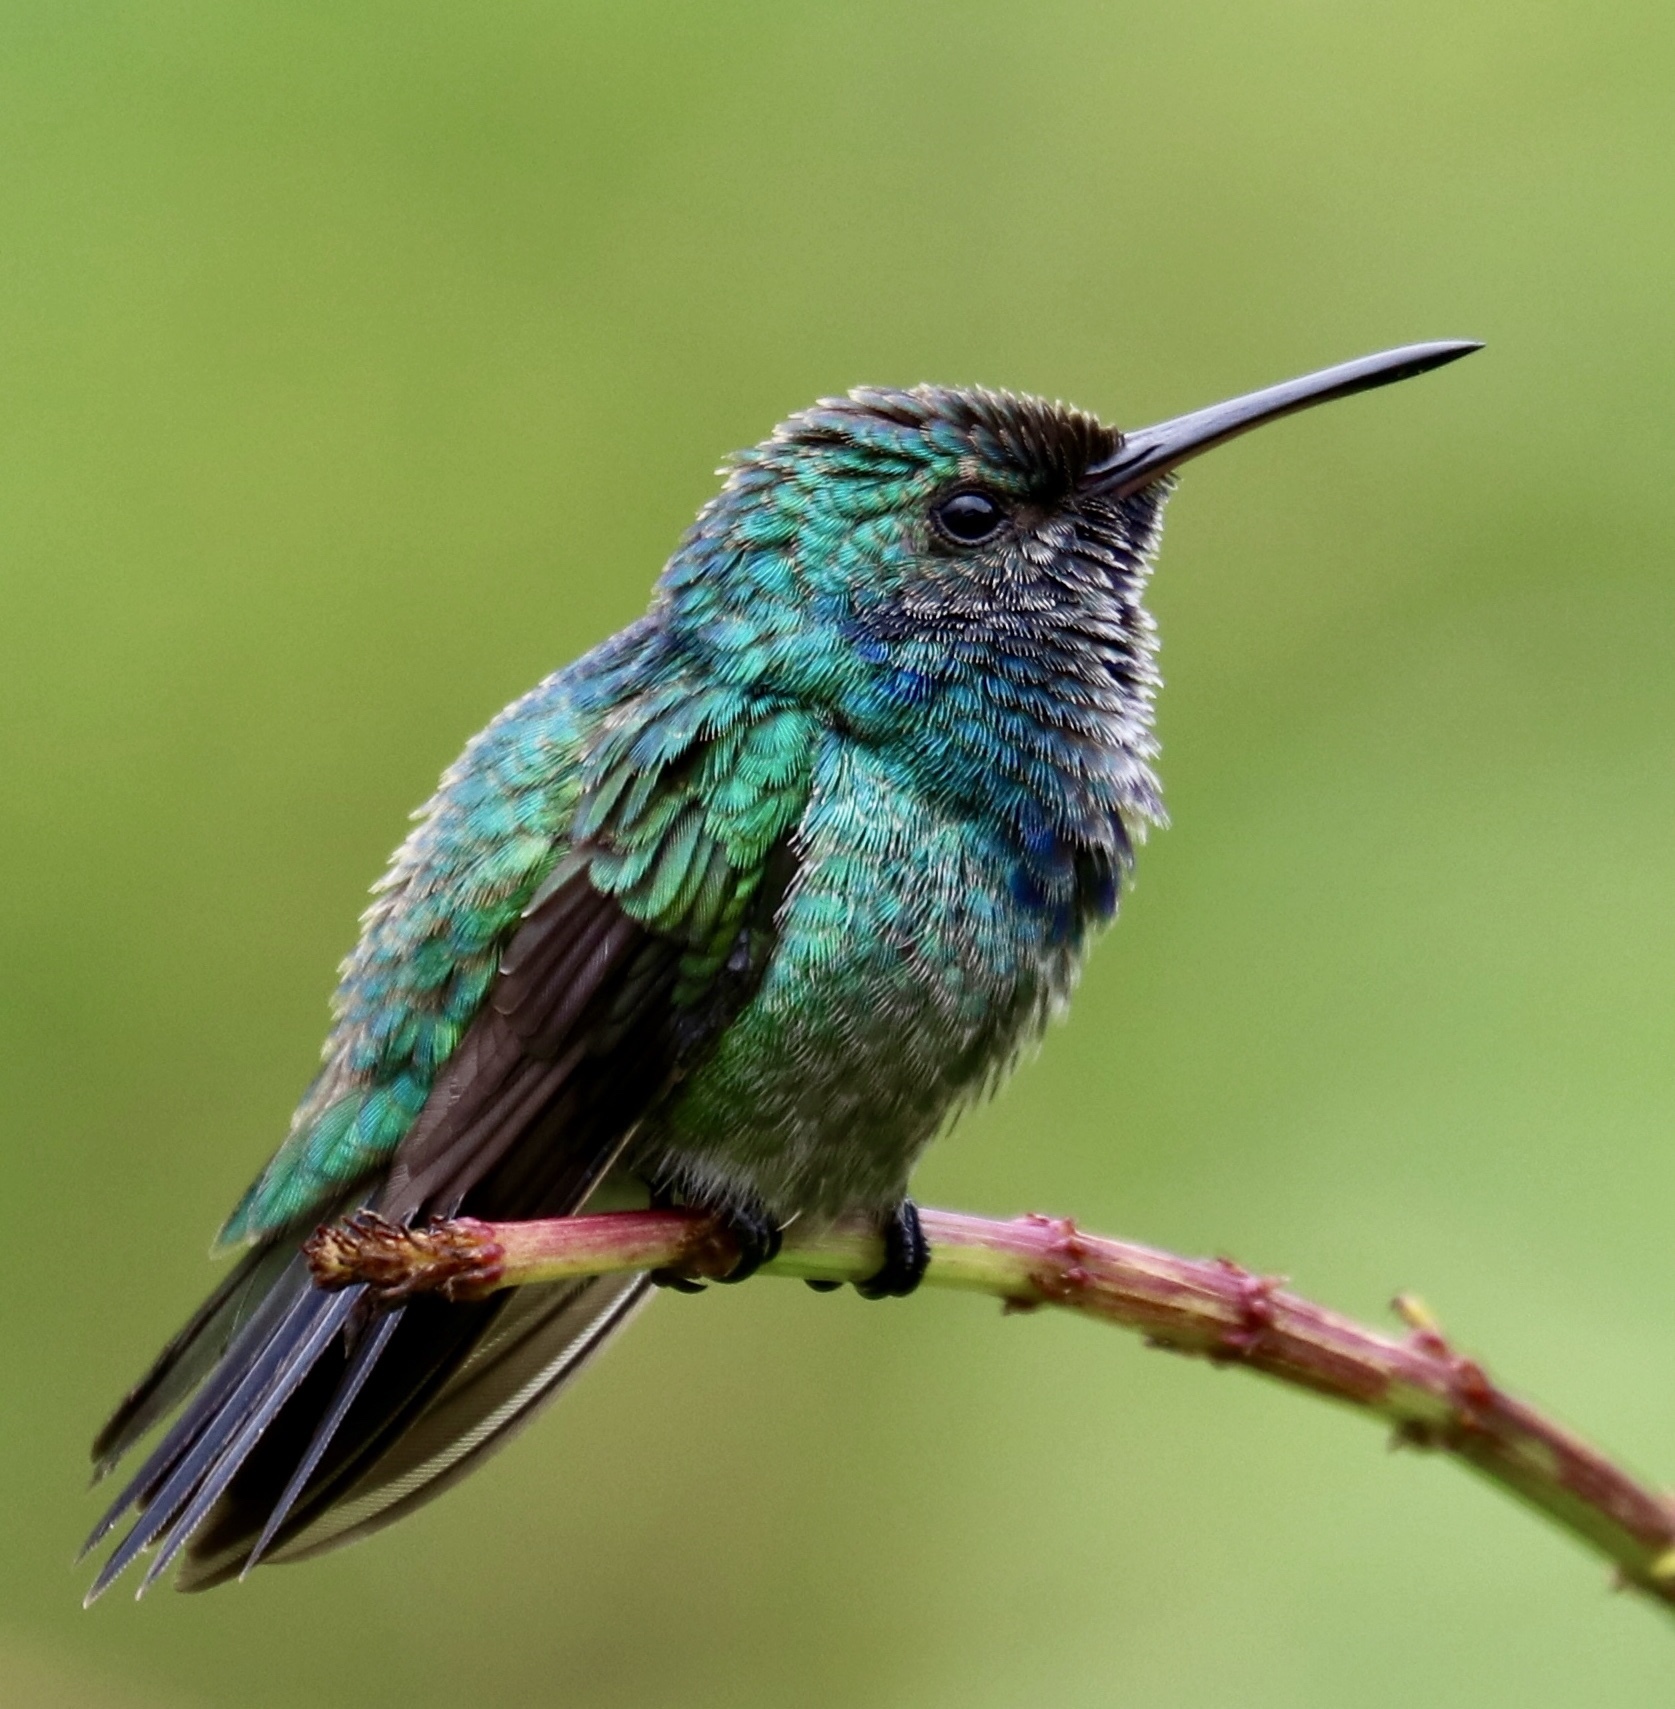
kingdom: Animalia
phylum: Chordata
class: Aves
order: Apodiformes
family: Trochilidae
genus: Chrysuronia
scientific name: Chrysuronia coeruleogularis
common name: Sapphire-throated hummingbird
